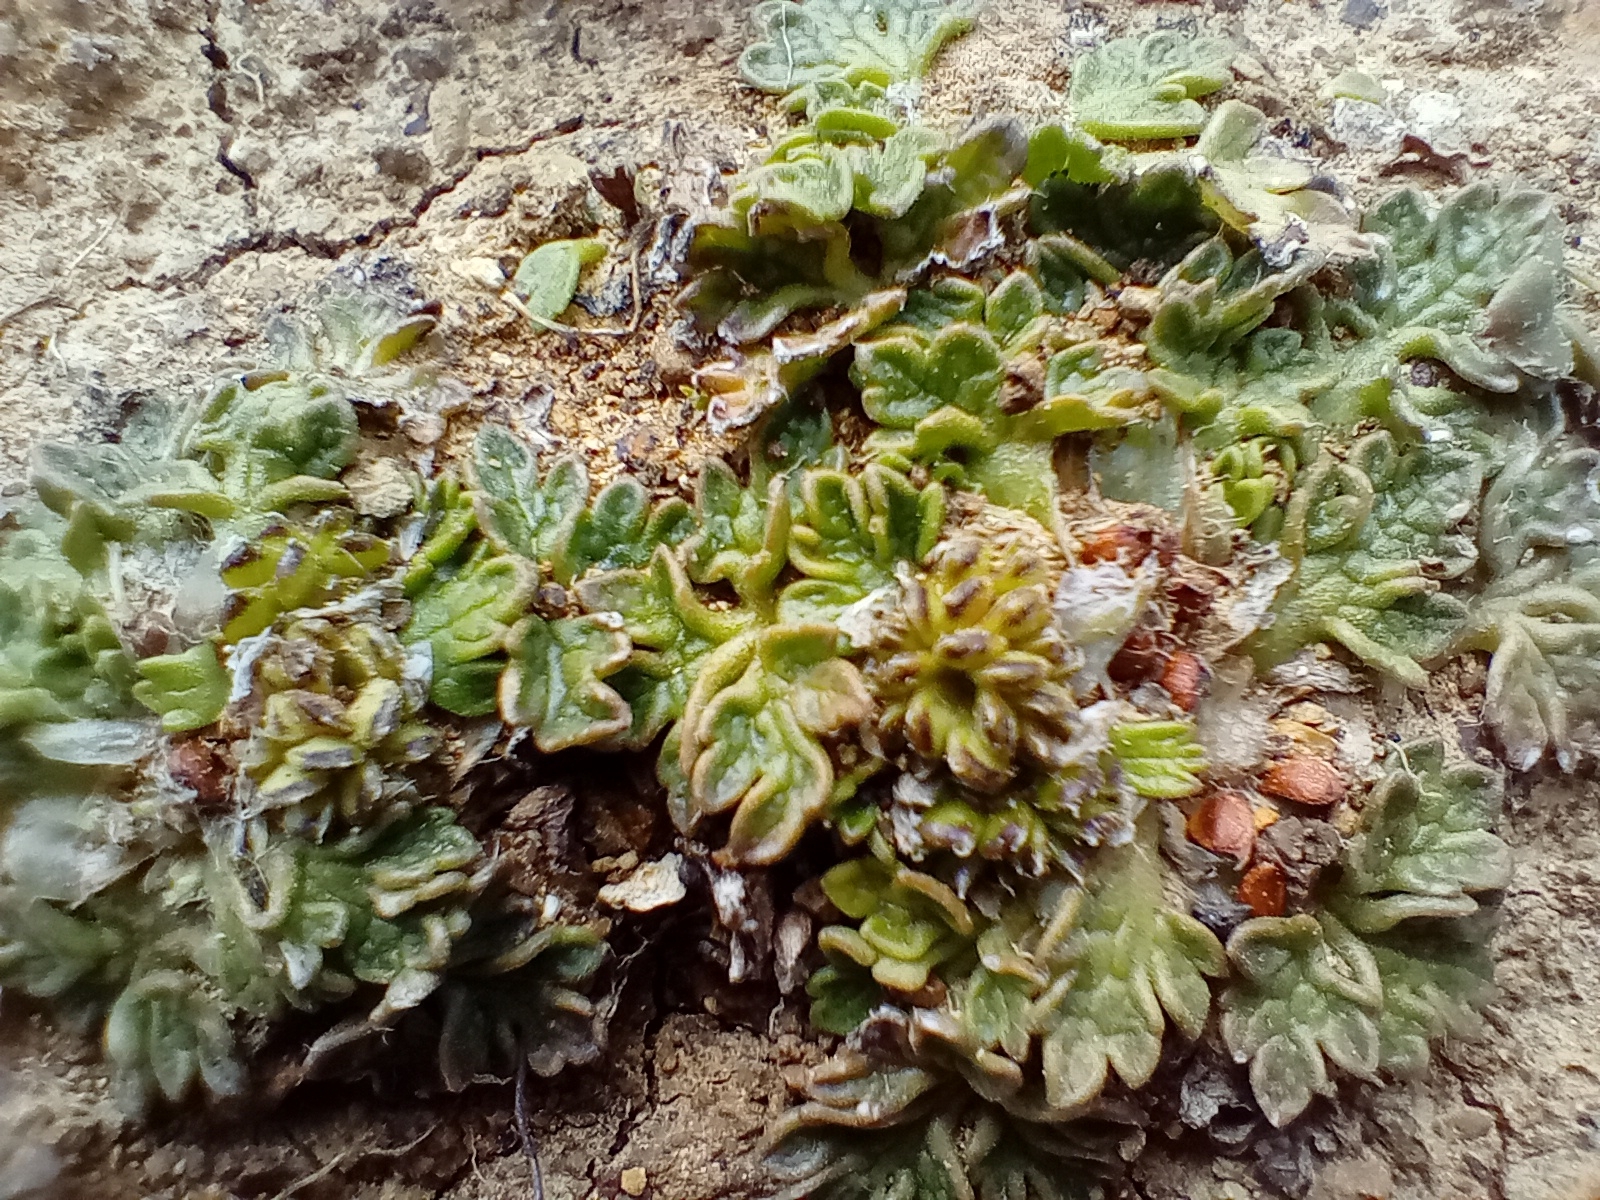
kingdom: Plantae
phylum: Tracheophyta
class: Magnoliopsida
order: Ranunculales
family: Ranunculaceae
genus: Ranunculus
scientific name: Ranunculus recens
